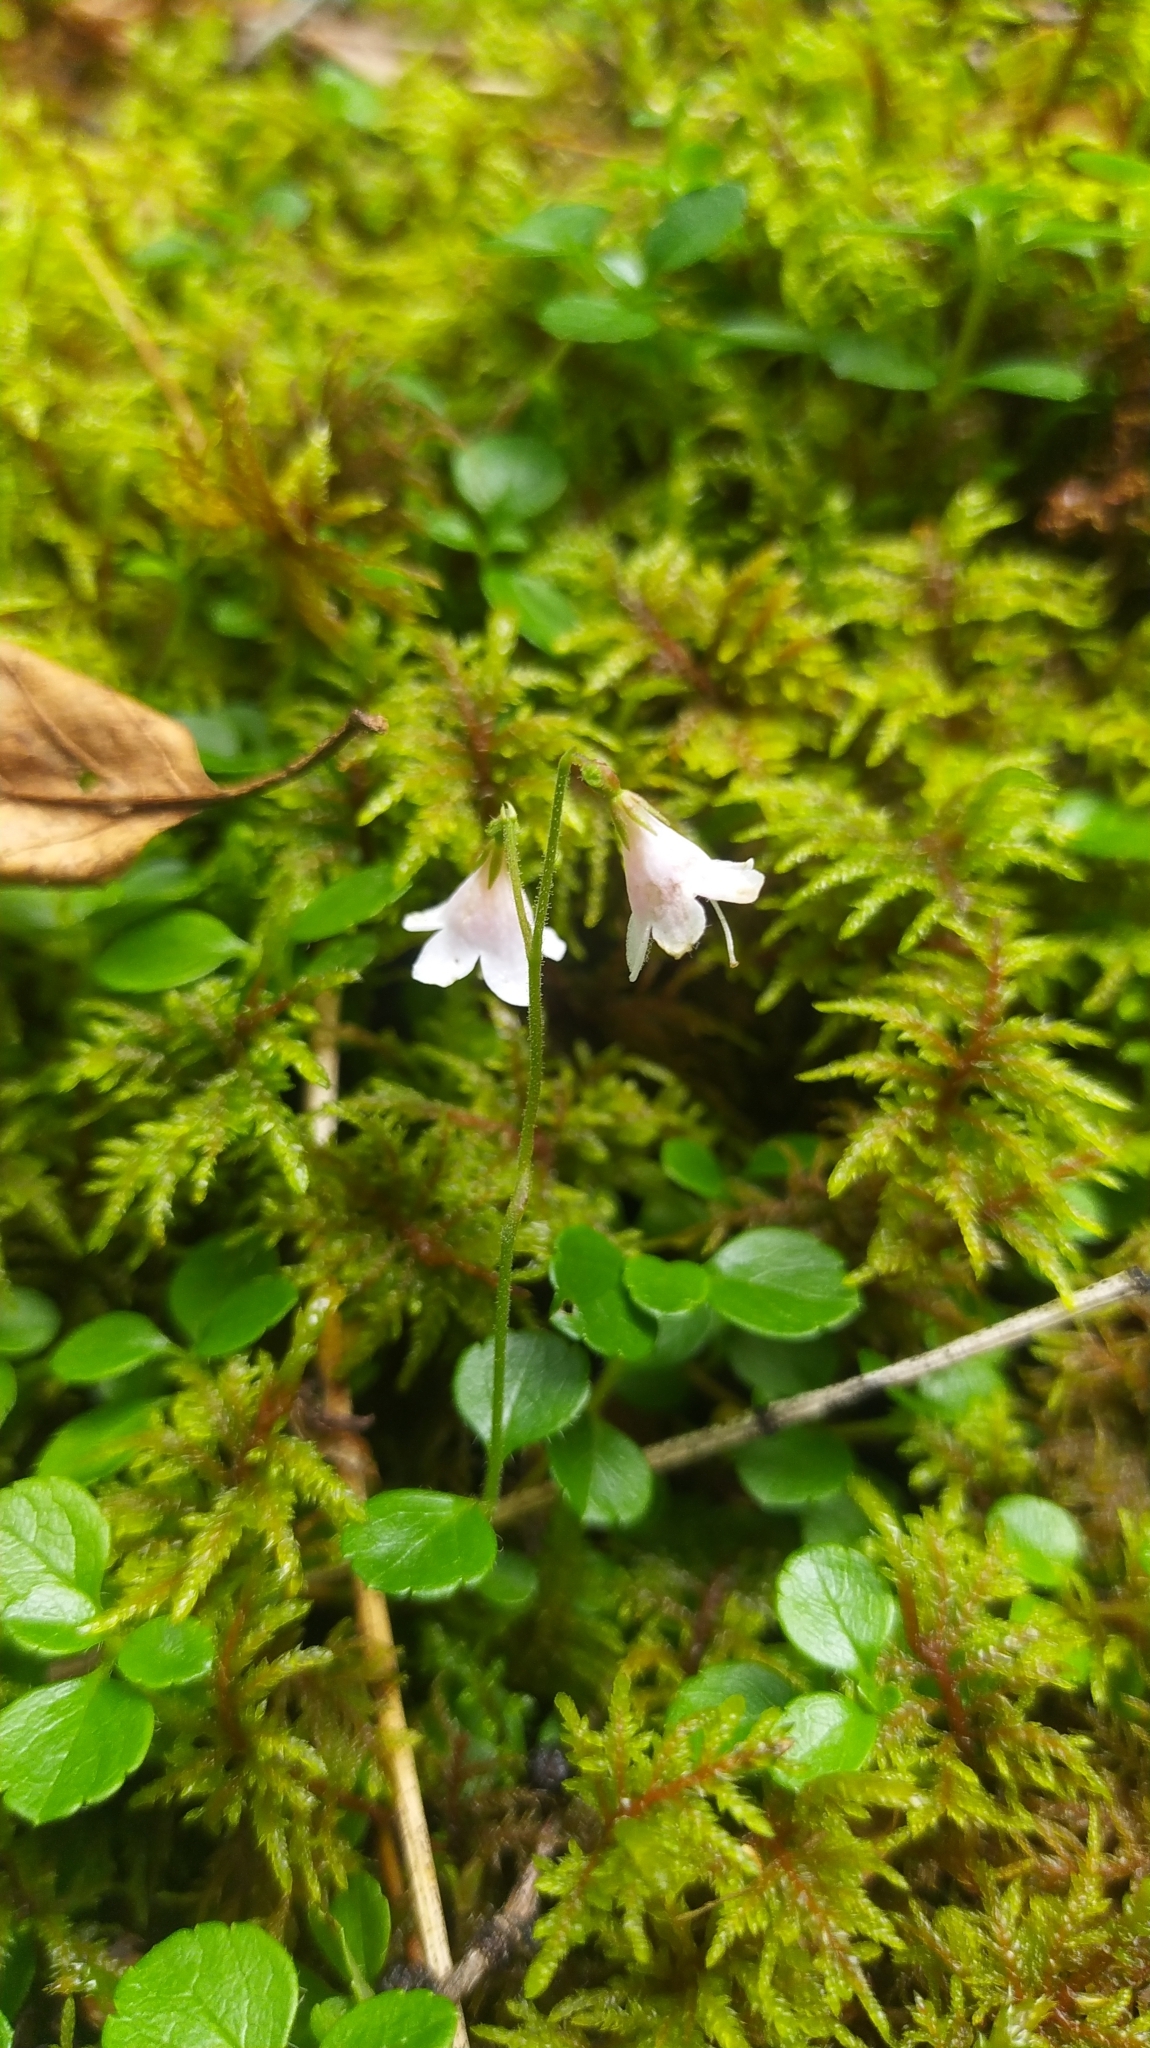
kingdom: Plantae
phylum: Tracheophyta
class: Magnoliopsida
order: Dipsacales
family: Caprifoliaceae
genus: Linnaea
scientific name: Linnaea borealis
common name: Twinflower
